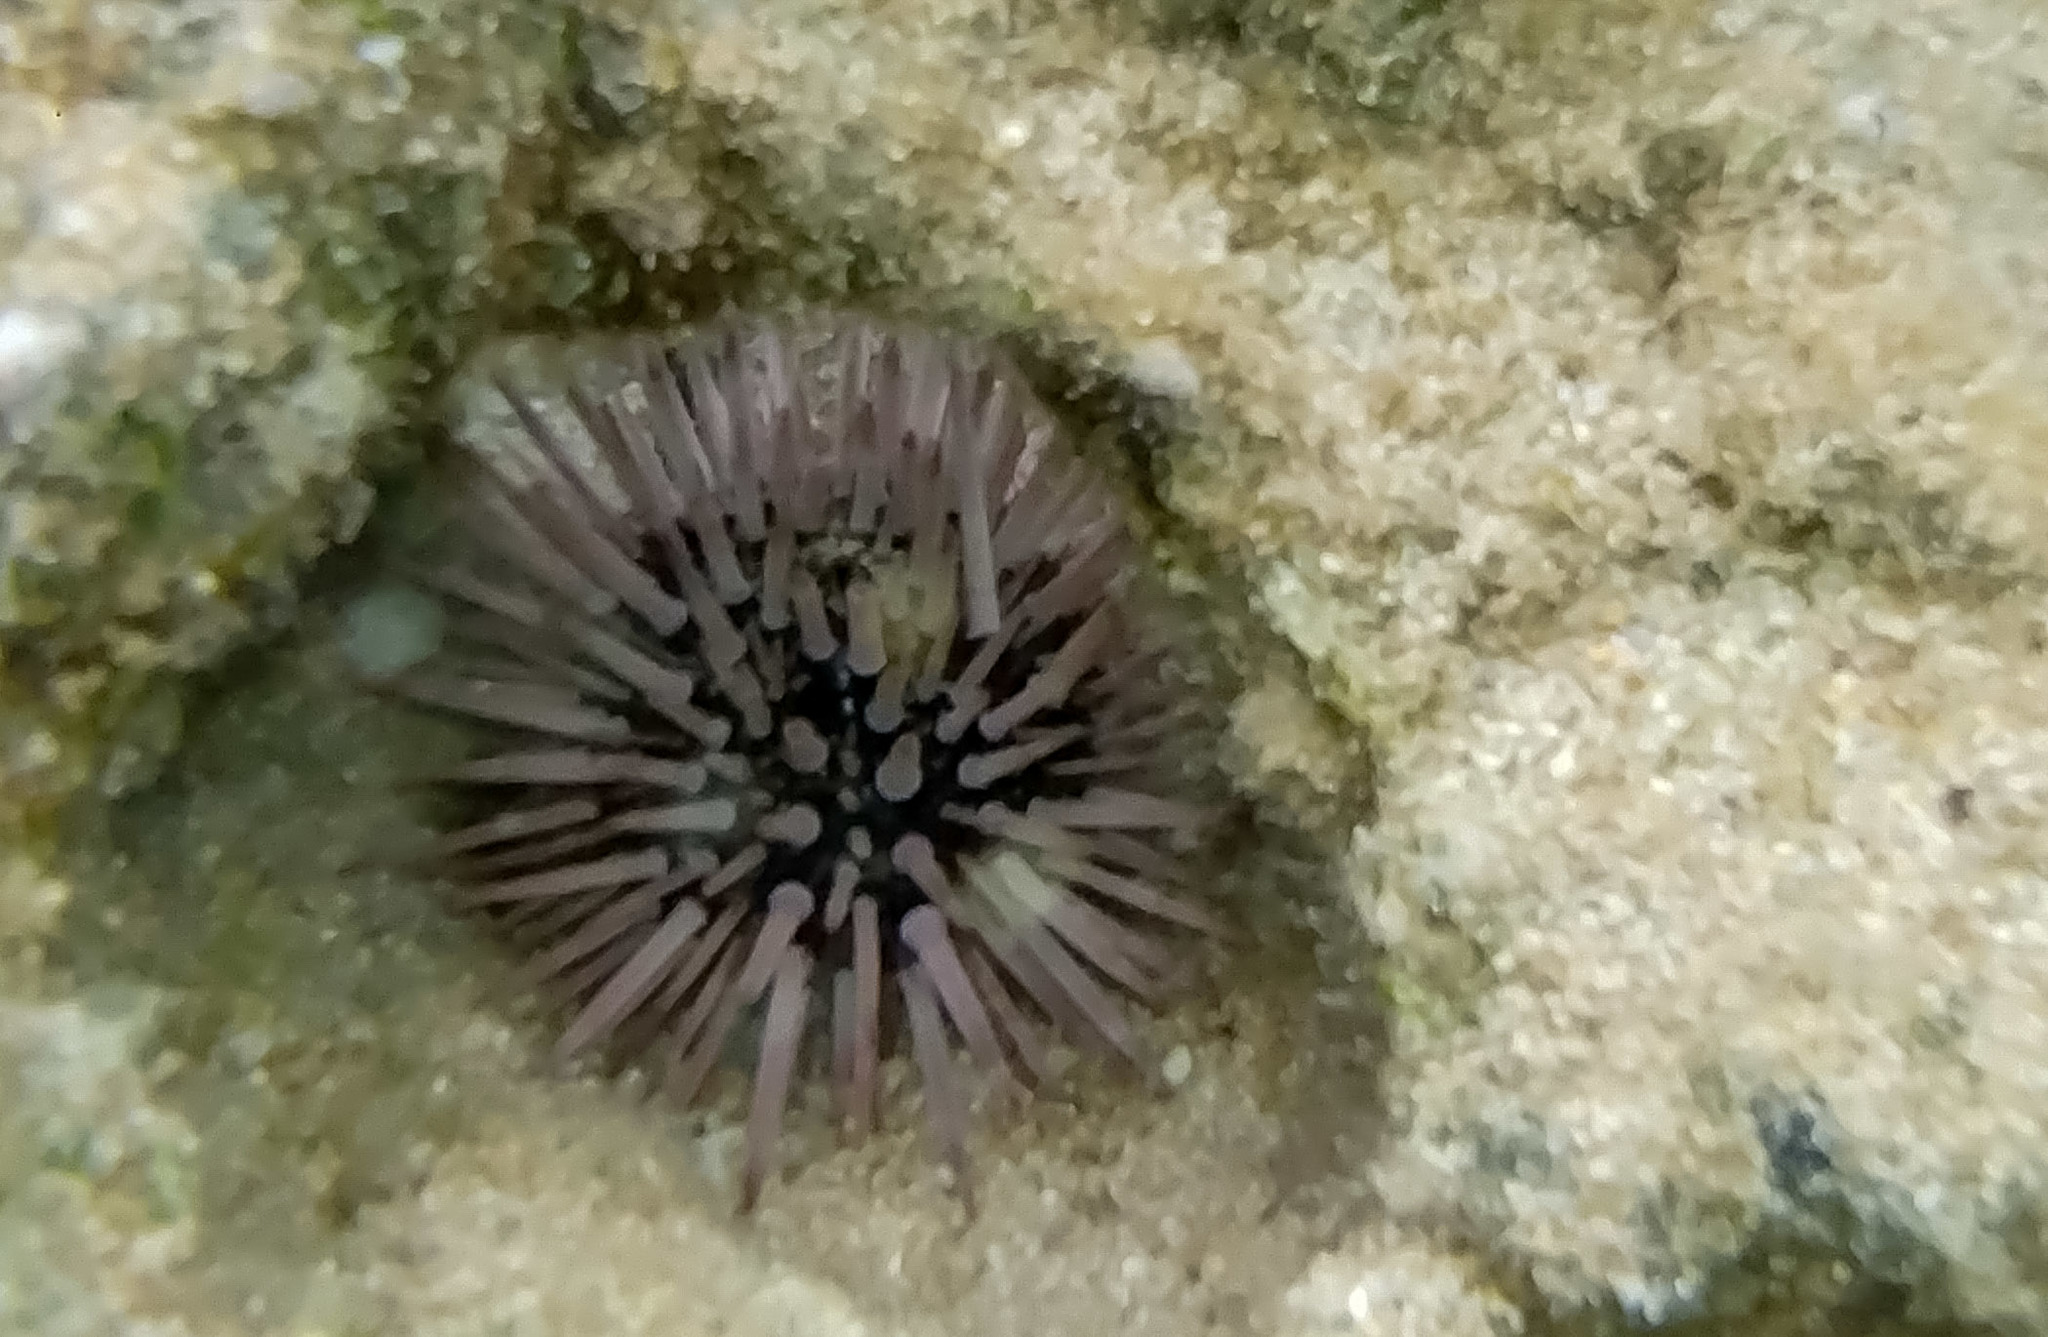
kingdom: Animalia
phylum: Echinodermata
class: Echinoidea
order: Camarodonta
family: Echinometridae
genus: Echinometra
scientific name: Echinometra mathaei
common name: Rock-boring urchin
